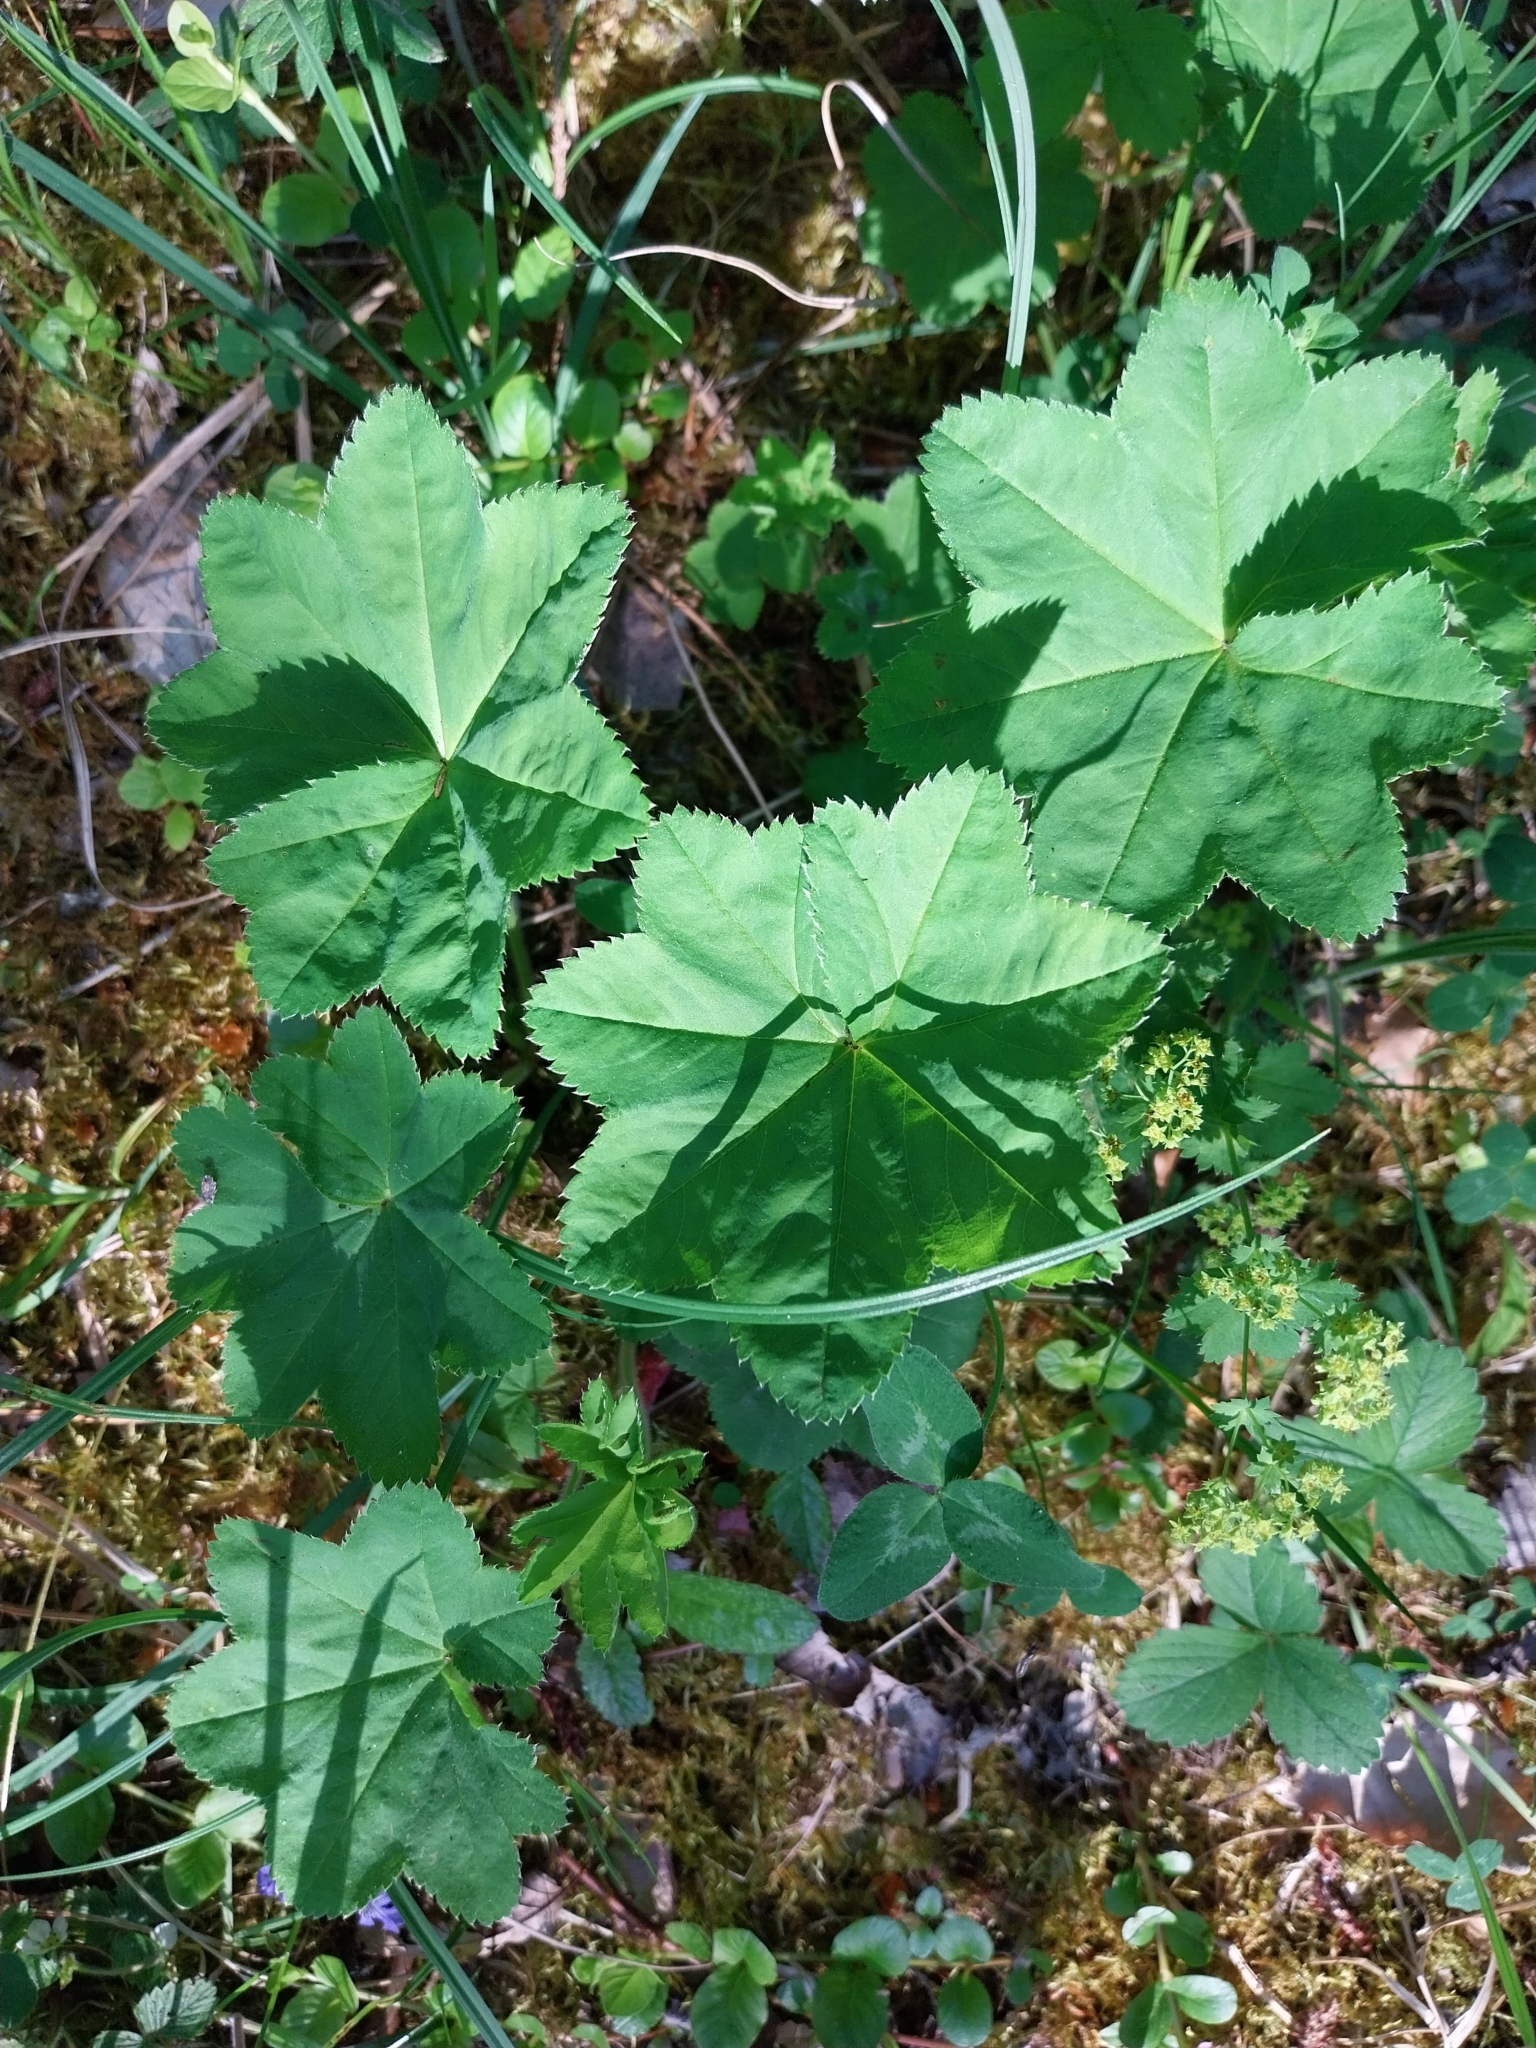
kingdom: Plantae
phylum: Tracheophyta
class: Magnoliopsida
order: Rosales
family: Rosaceae
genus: Alchemilla
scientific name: Alchemilla vulgaris
